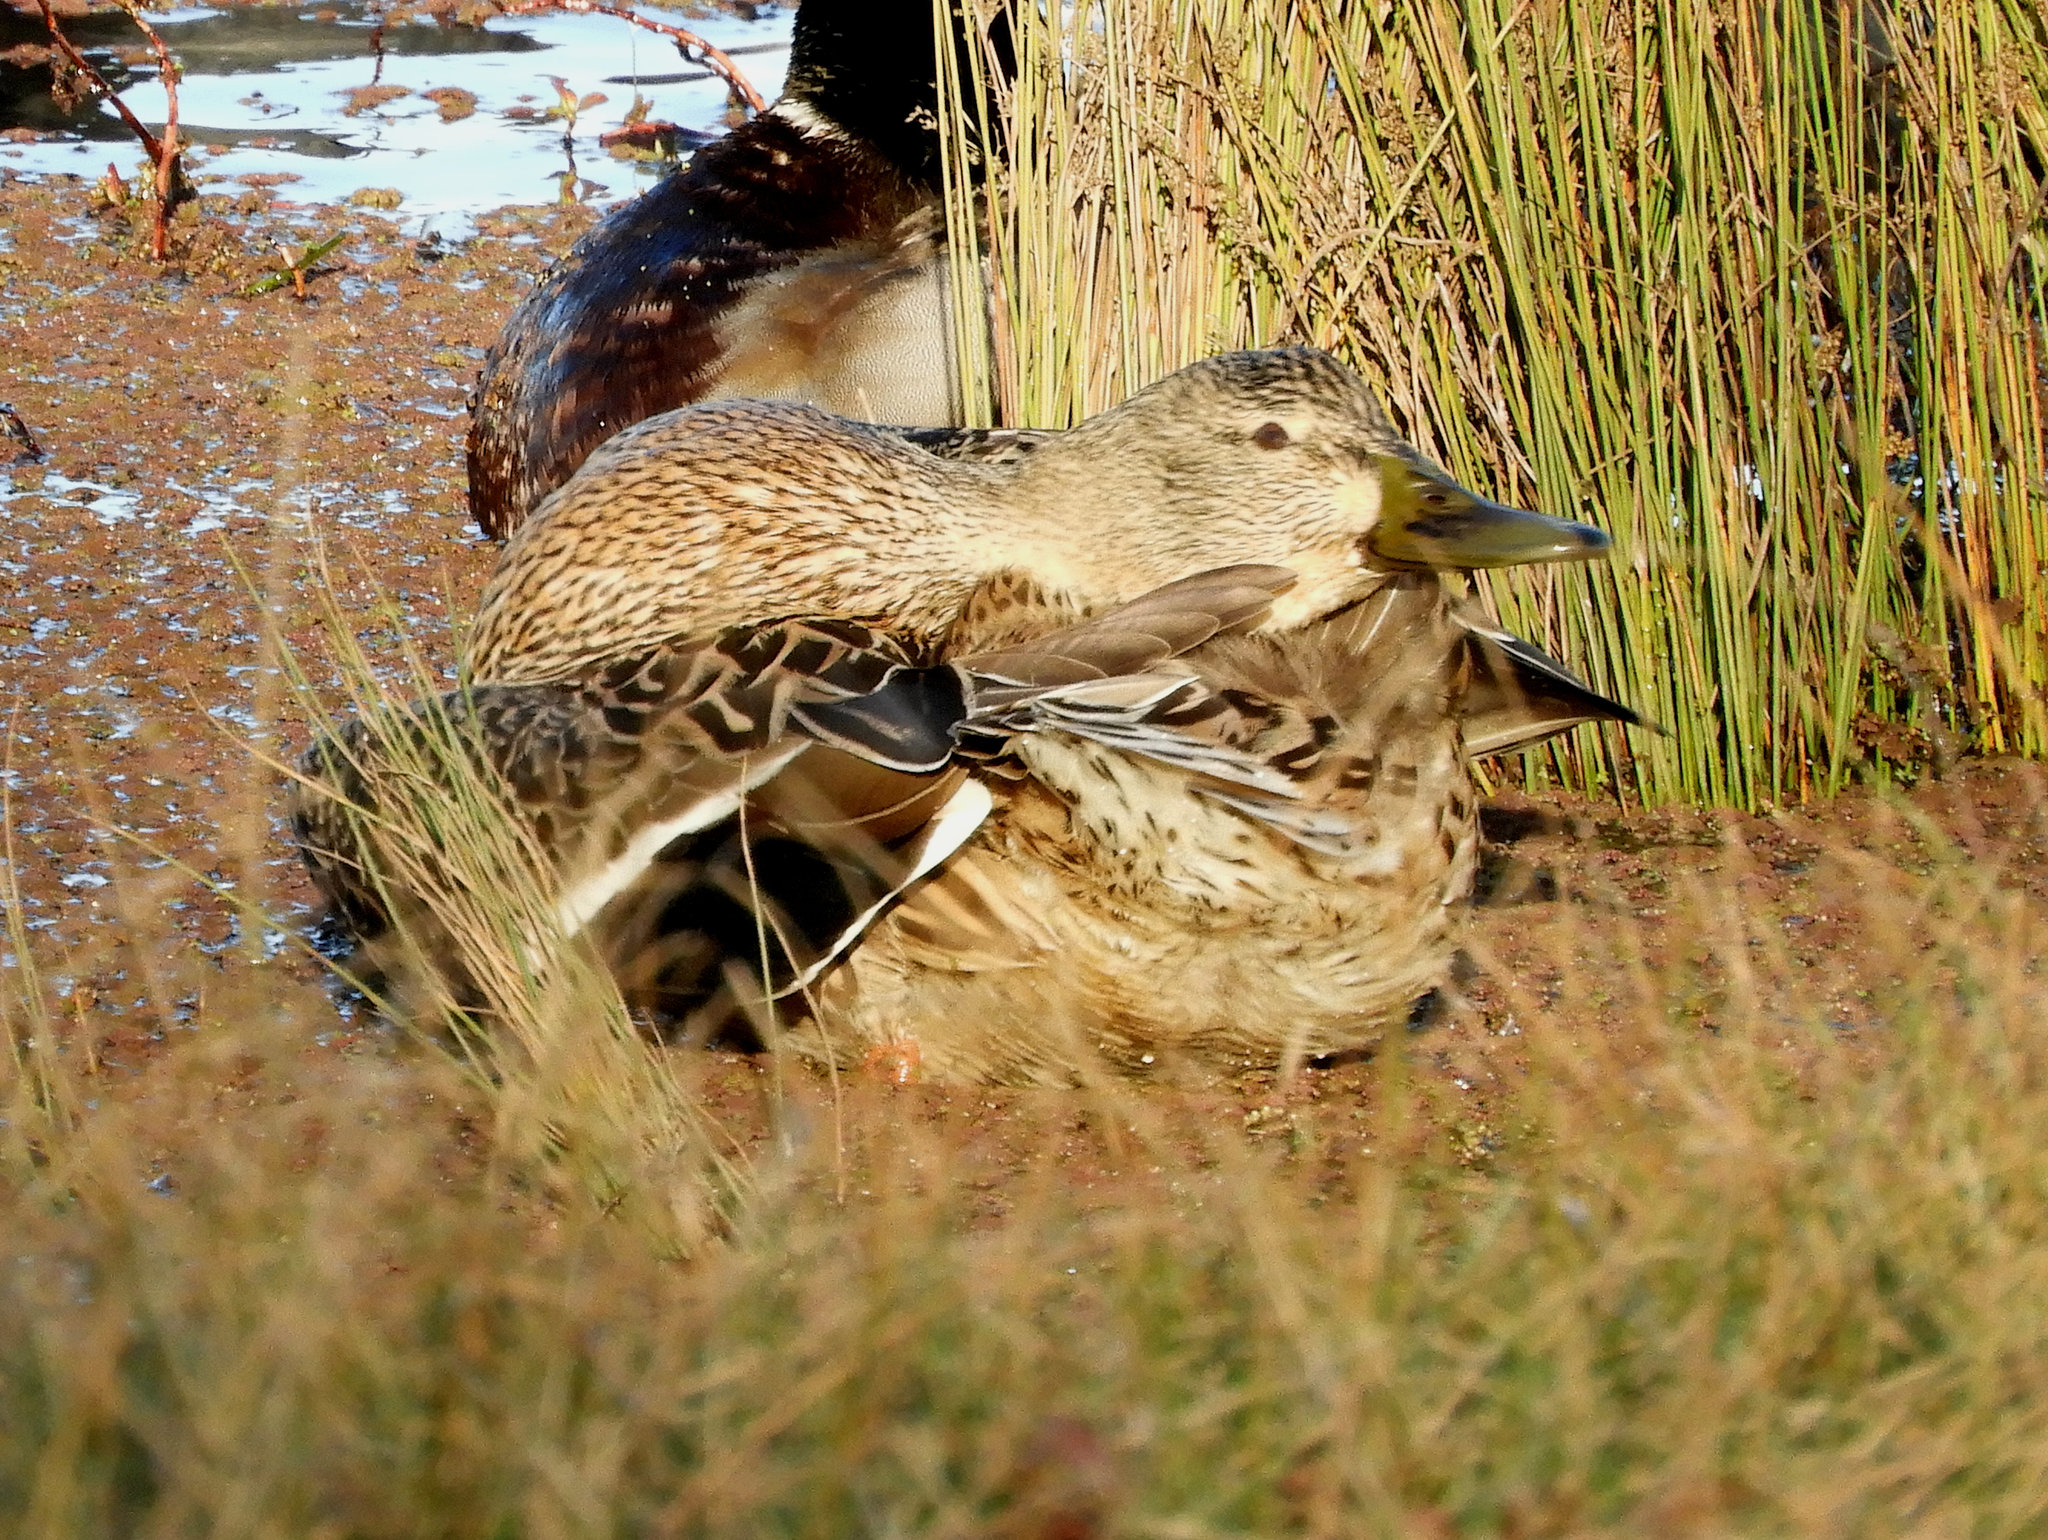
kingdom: Animalia
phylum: Chordata
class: Aves
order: Anseriformes
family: Anatidae
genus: Anas
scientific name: Anas platyrhynchos
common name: Mallard
